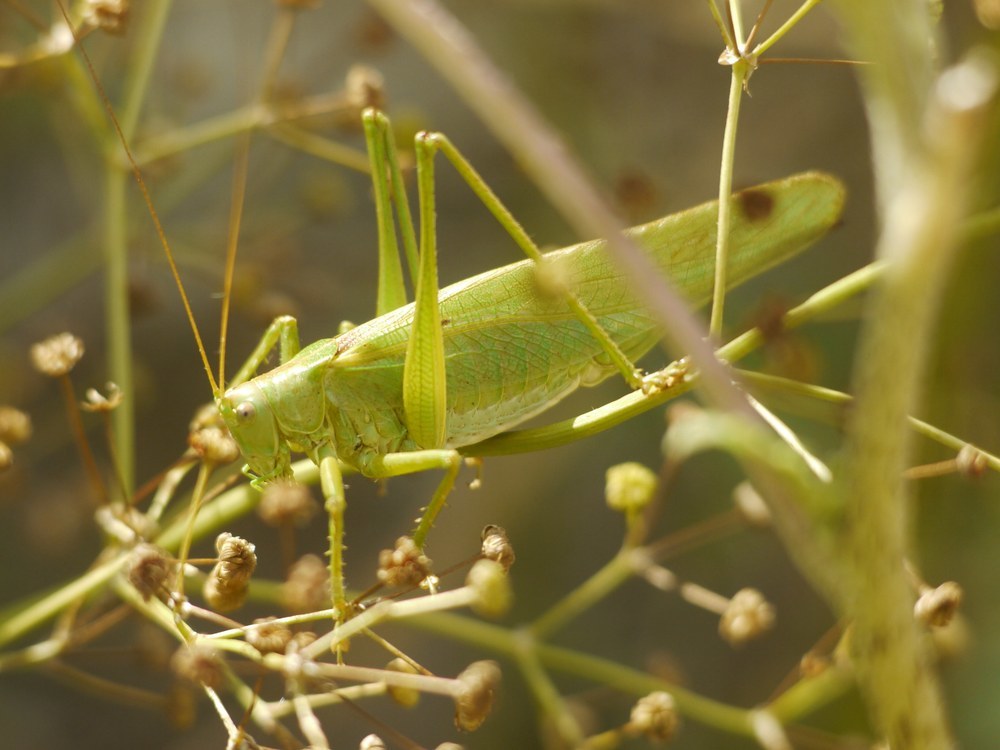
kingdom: Animalia
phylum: Arthropoda
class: Insecta
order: Orthoptera
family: Tettigoniidae
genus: Tettigonia
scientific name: Tettigonia viridissima
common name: Great green bush-cricket
